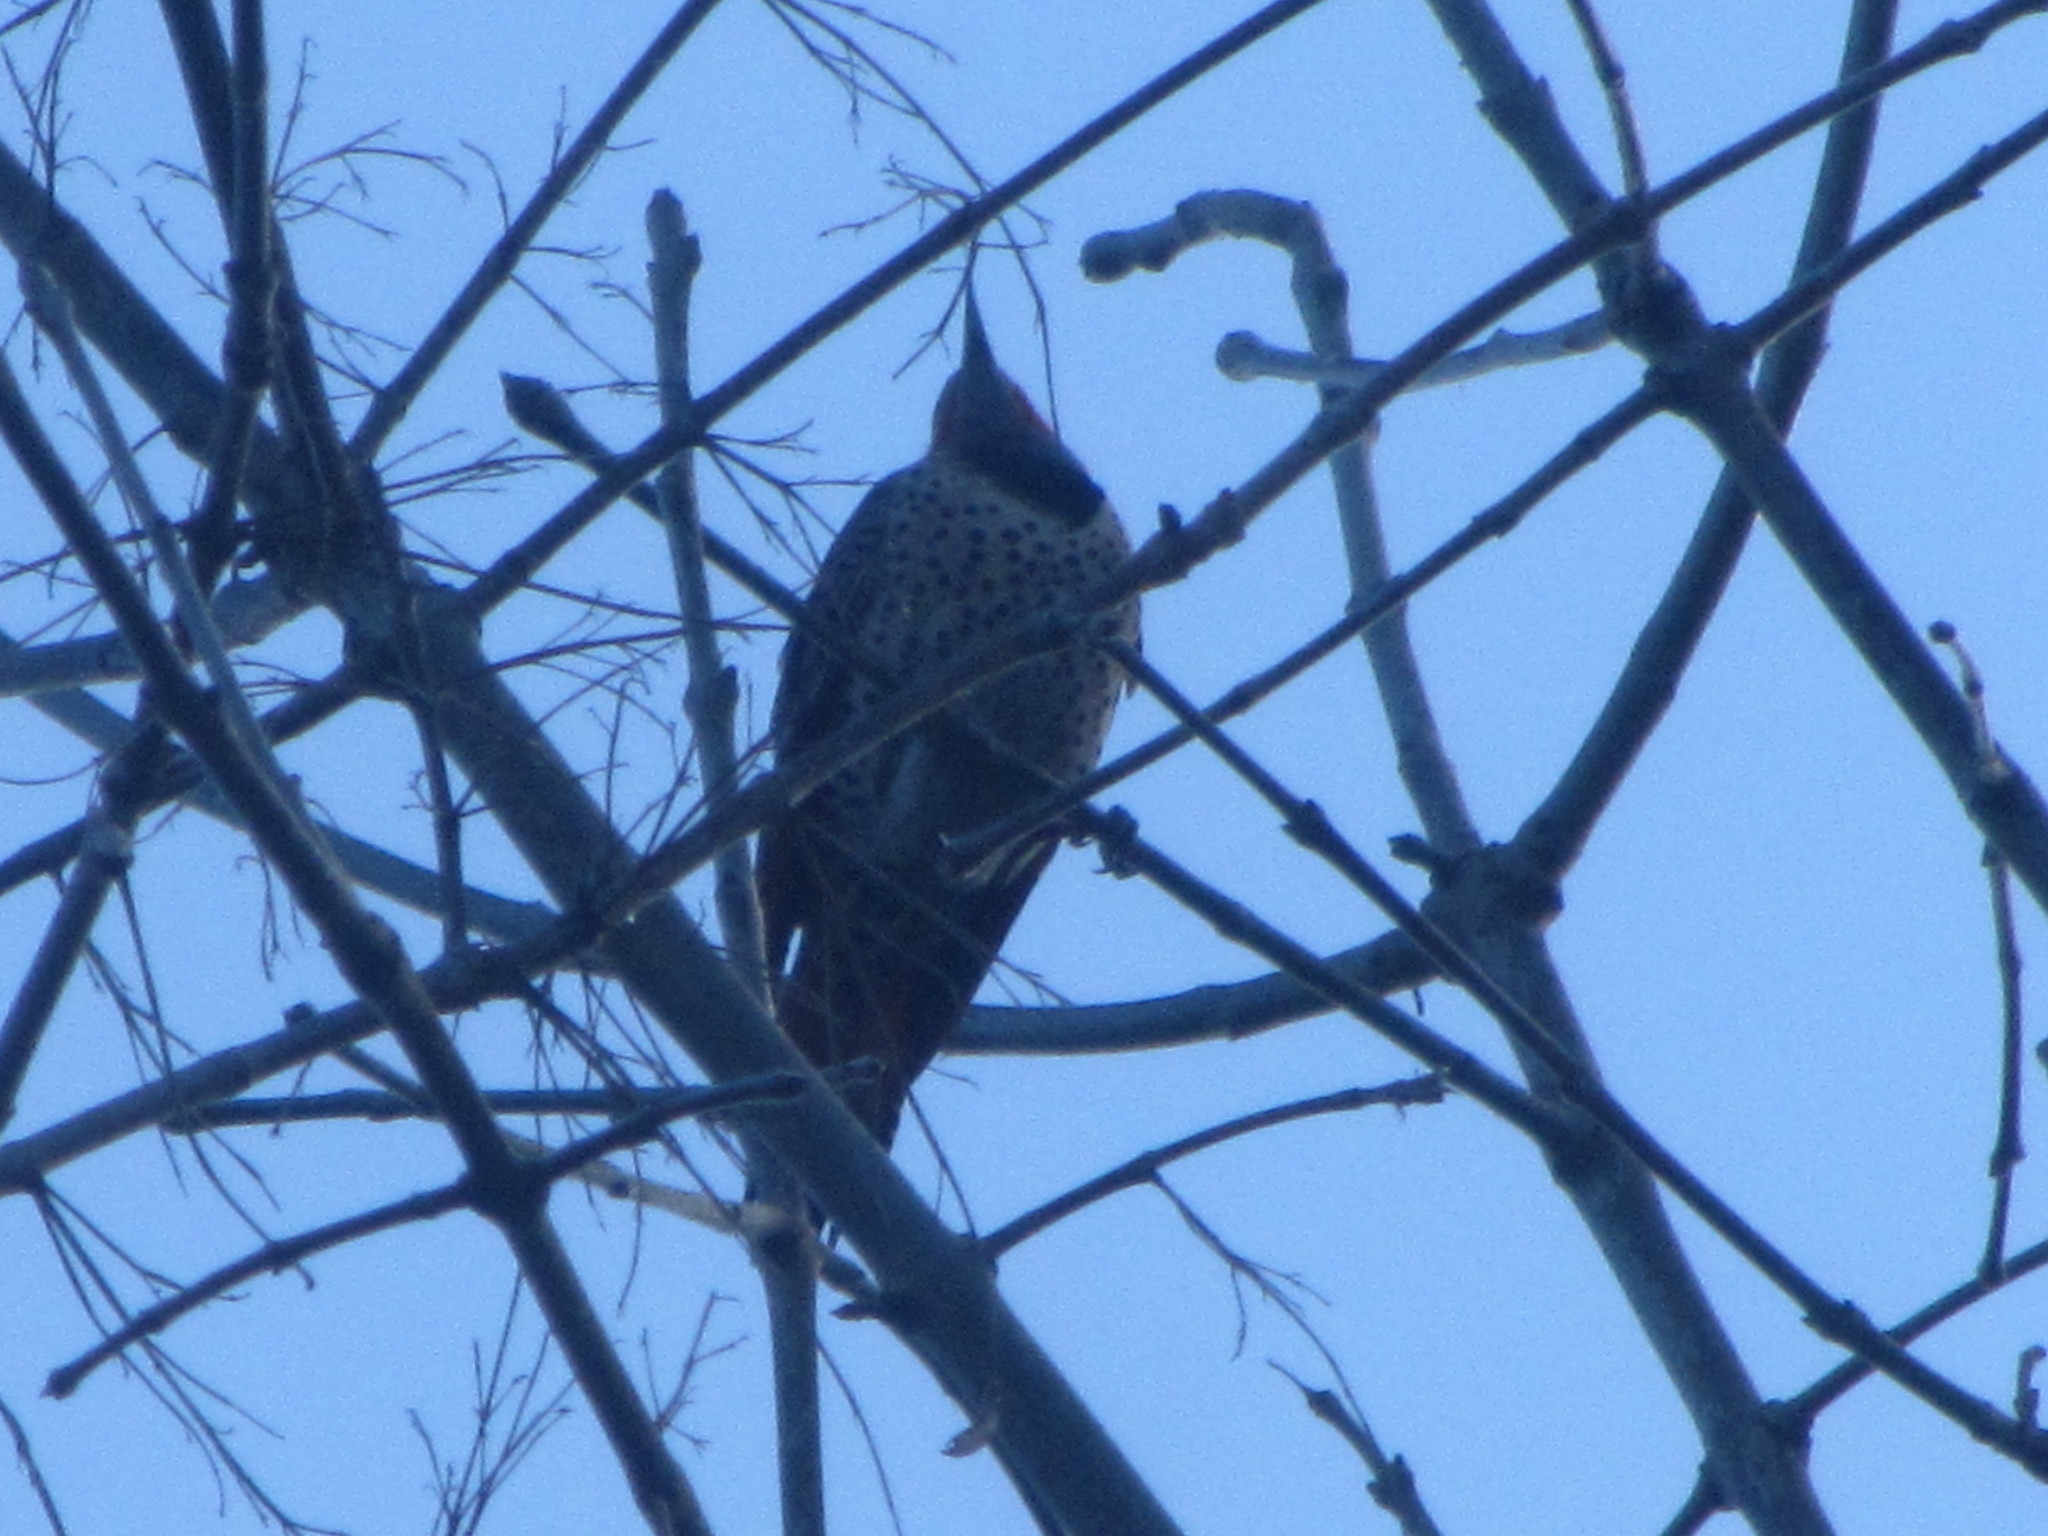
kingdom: Animalia
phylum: Chordata
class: Aves
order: Piciformes
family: Picidae
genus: Colaptes
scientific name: Colaptes auratus
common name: Northern flicker
